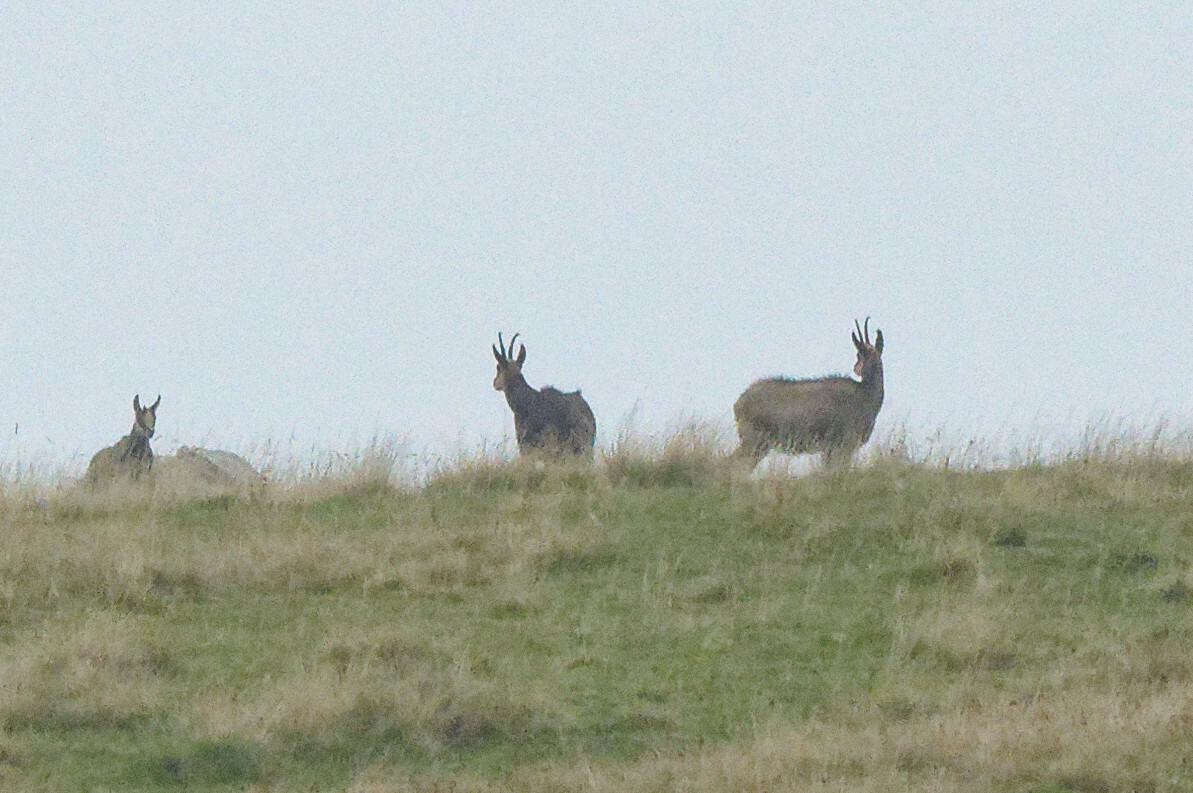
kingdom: Animalia
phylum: Chordata
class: Mammalia
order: Artiodactyla
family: Bovidae
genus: Rupicapra
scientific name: Rupicapra rupicapra
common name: Chamois
